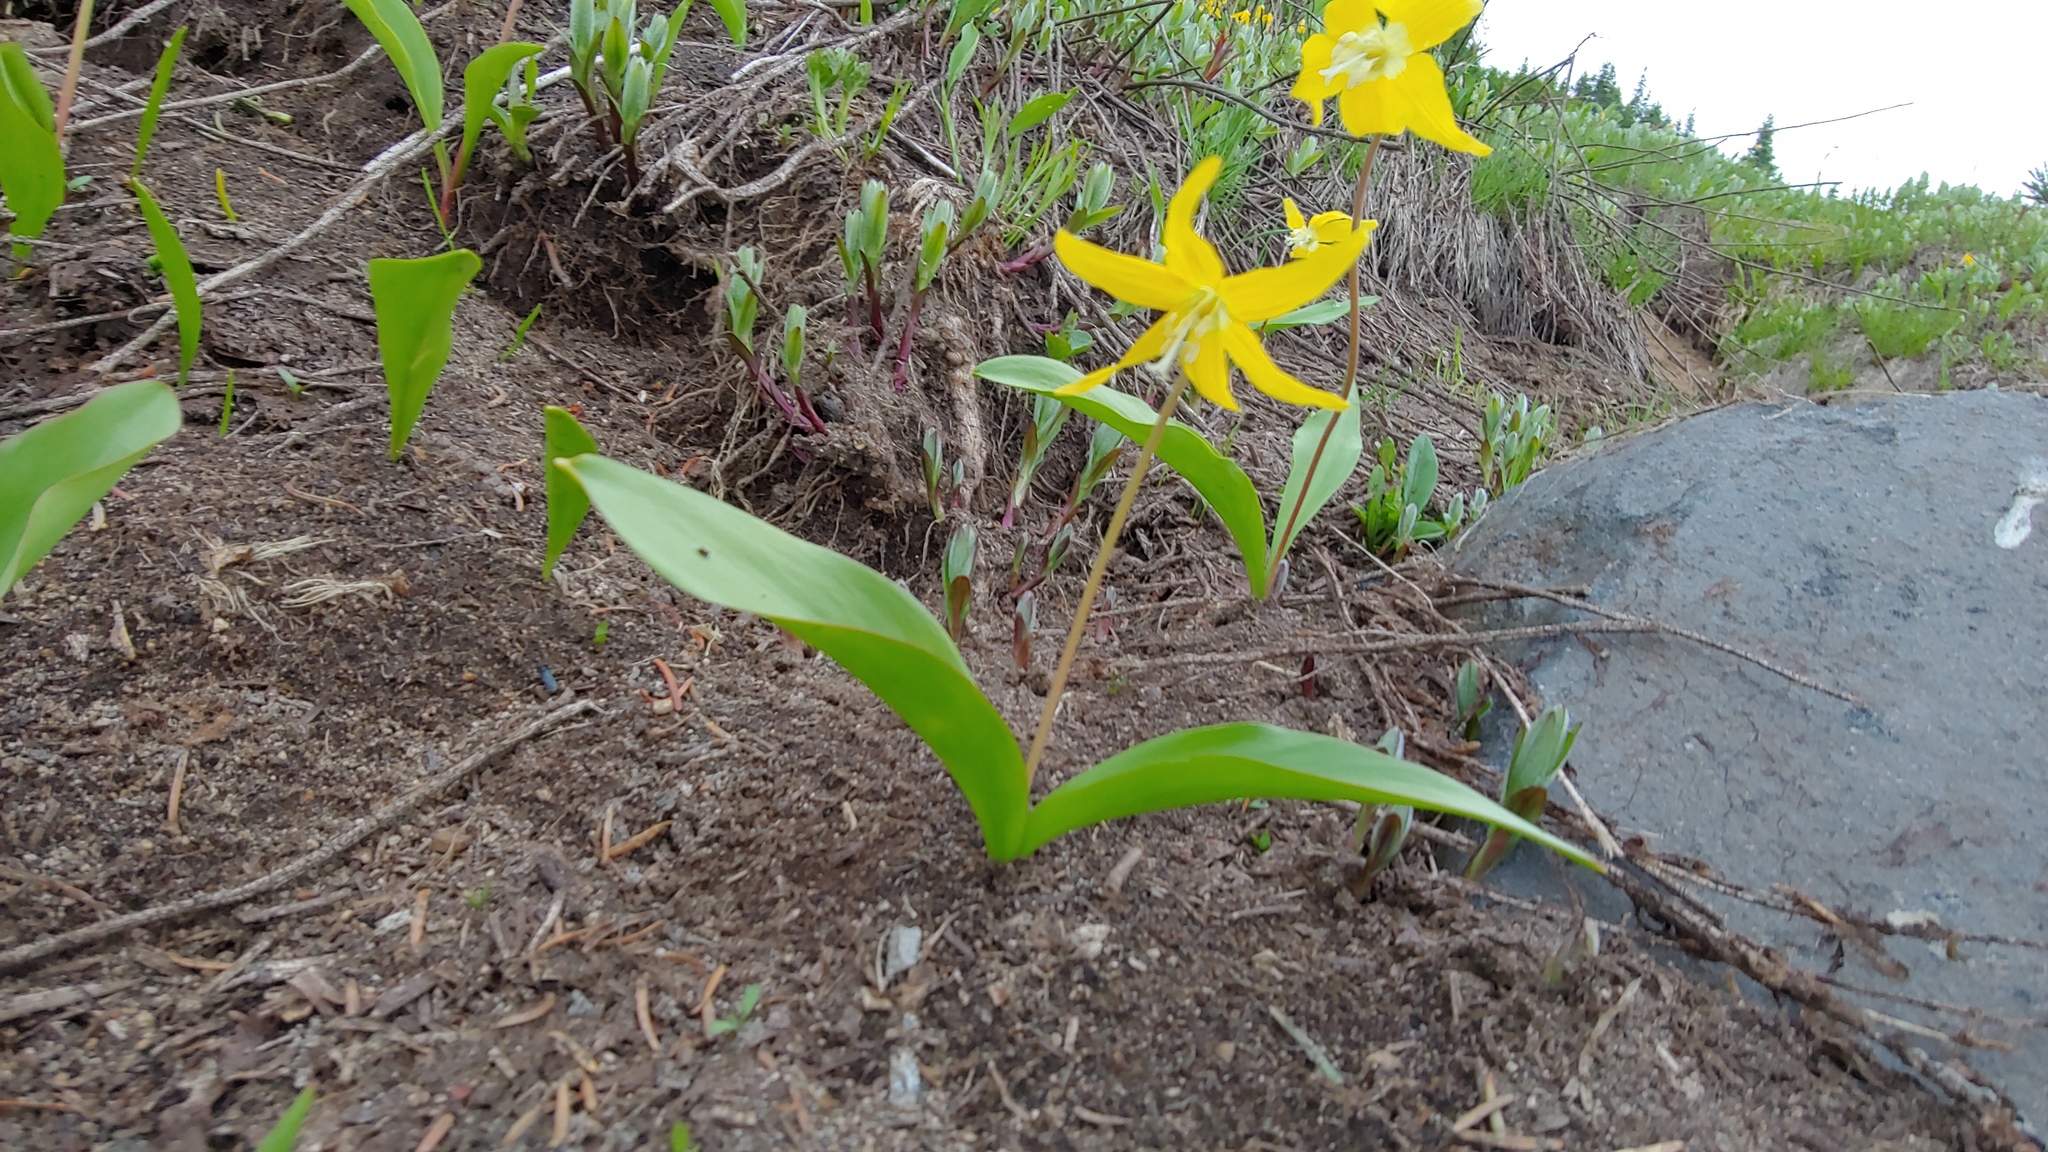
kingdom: Plantae
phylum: Tracheophyta
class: Liliopsida
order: Liliales
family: Liliaceae
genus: Erythronium
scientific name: Erythronium grandiflorum
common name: Avalanche-lily
